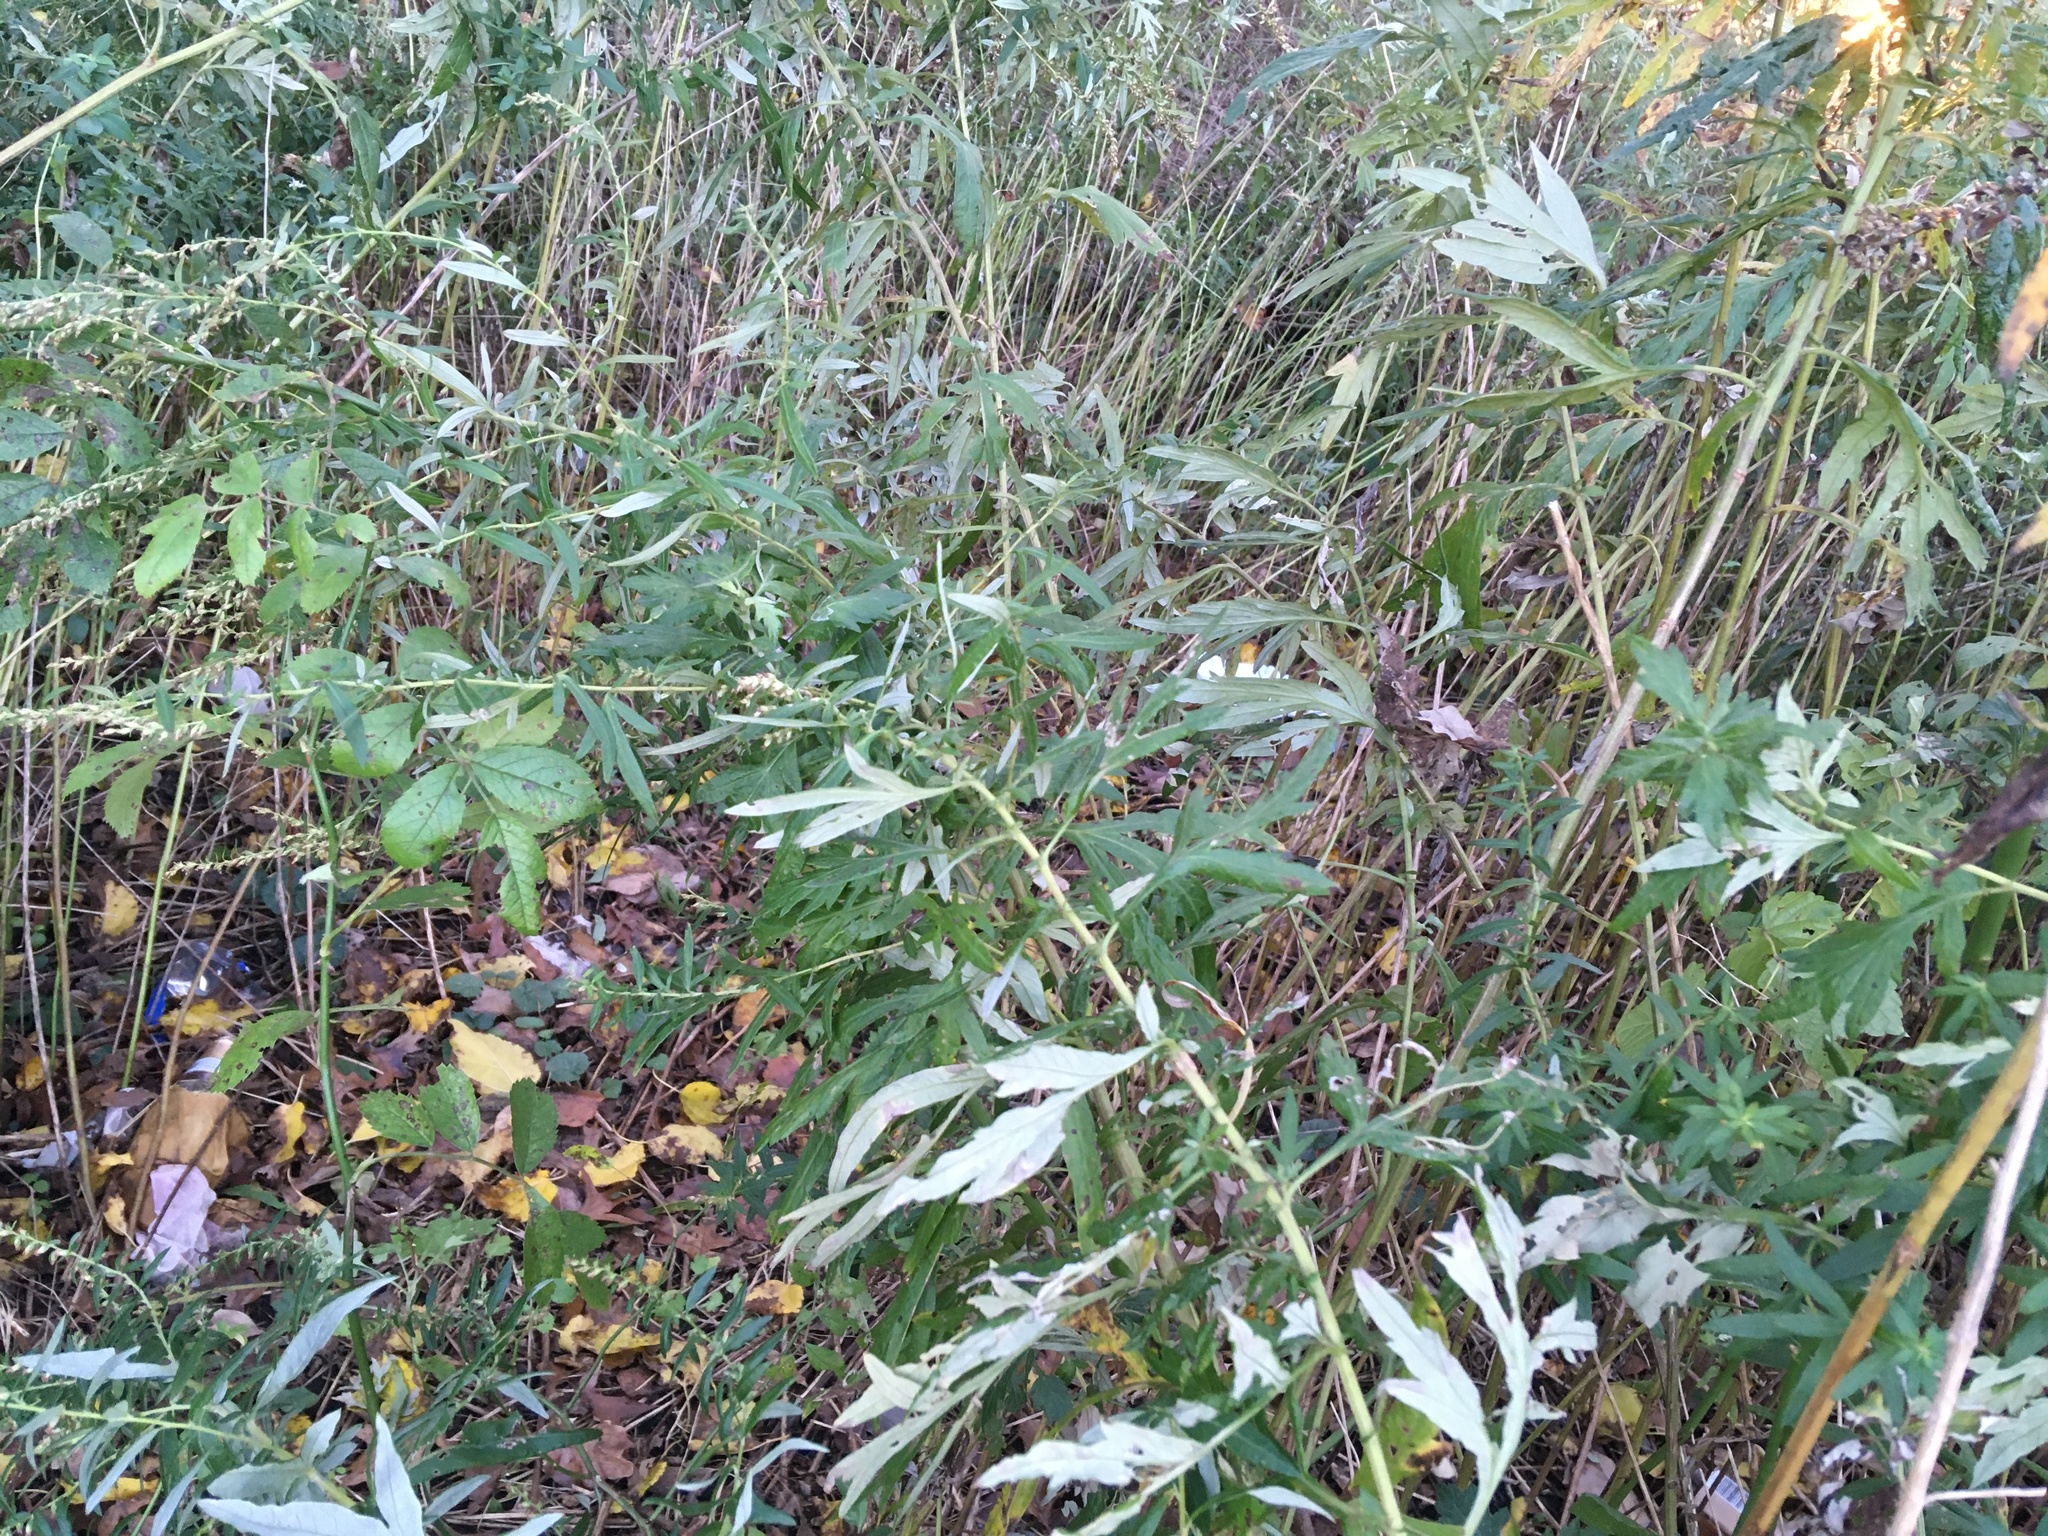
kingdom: Plantae
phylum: Tracheophyta
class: Magnoliopsida
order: Asterales
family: Asteraceae
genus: Artemisia
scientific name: Artemisia vulgaris
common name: Mugwort
